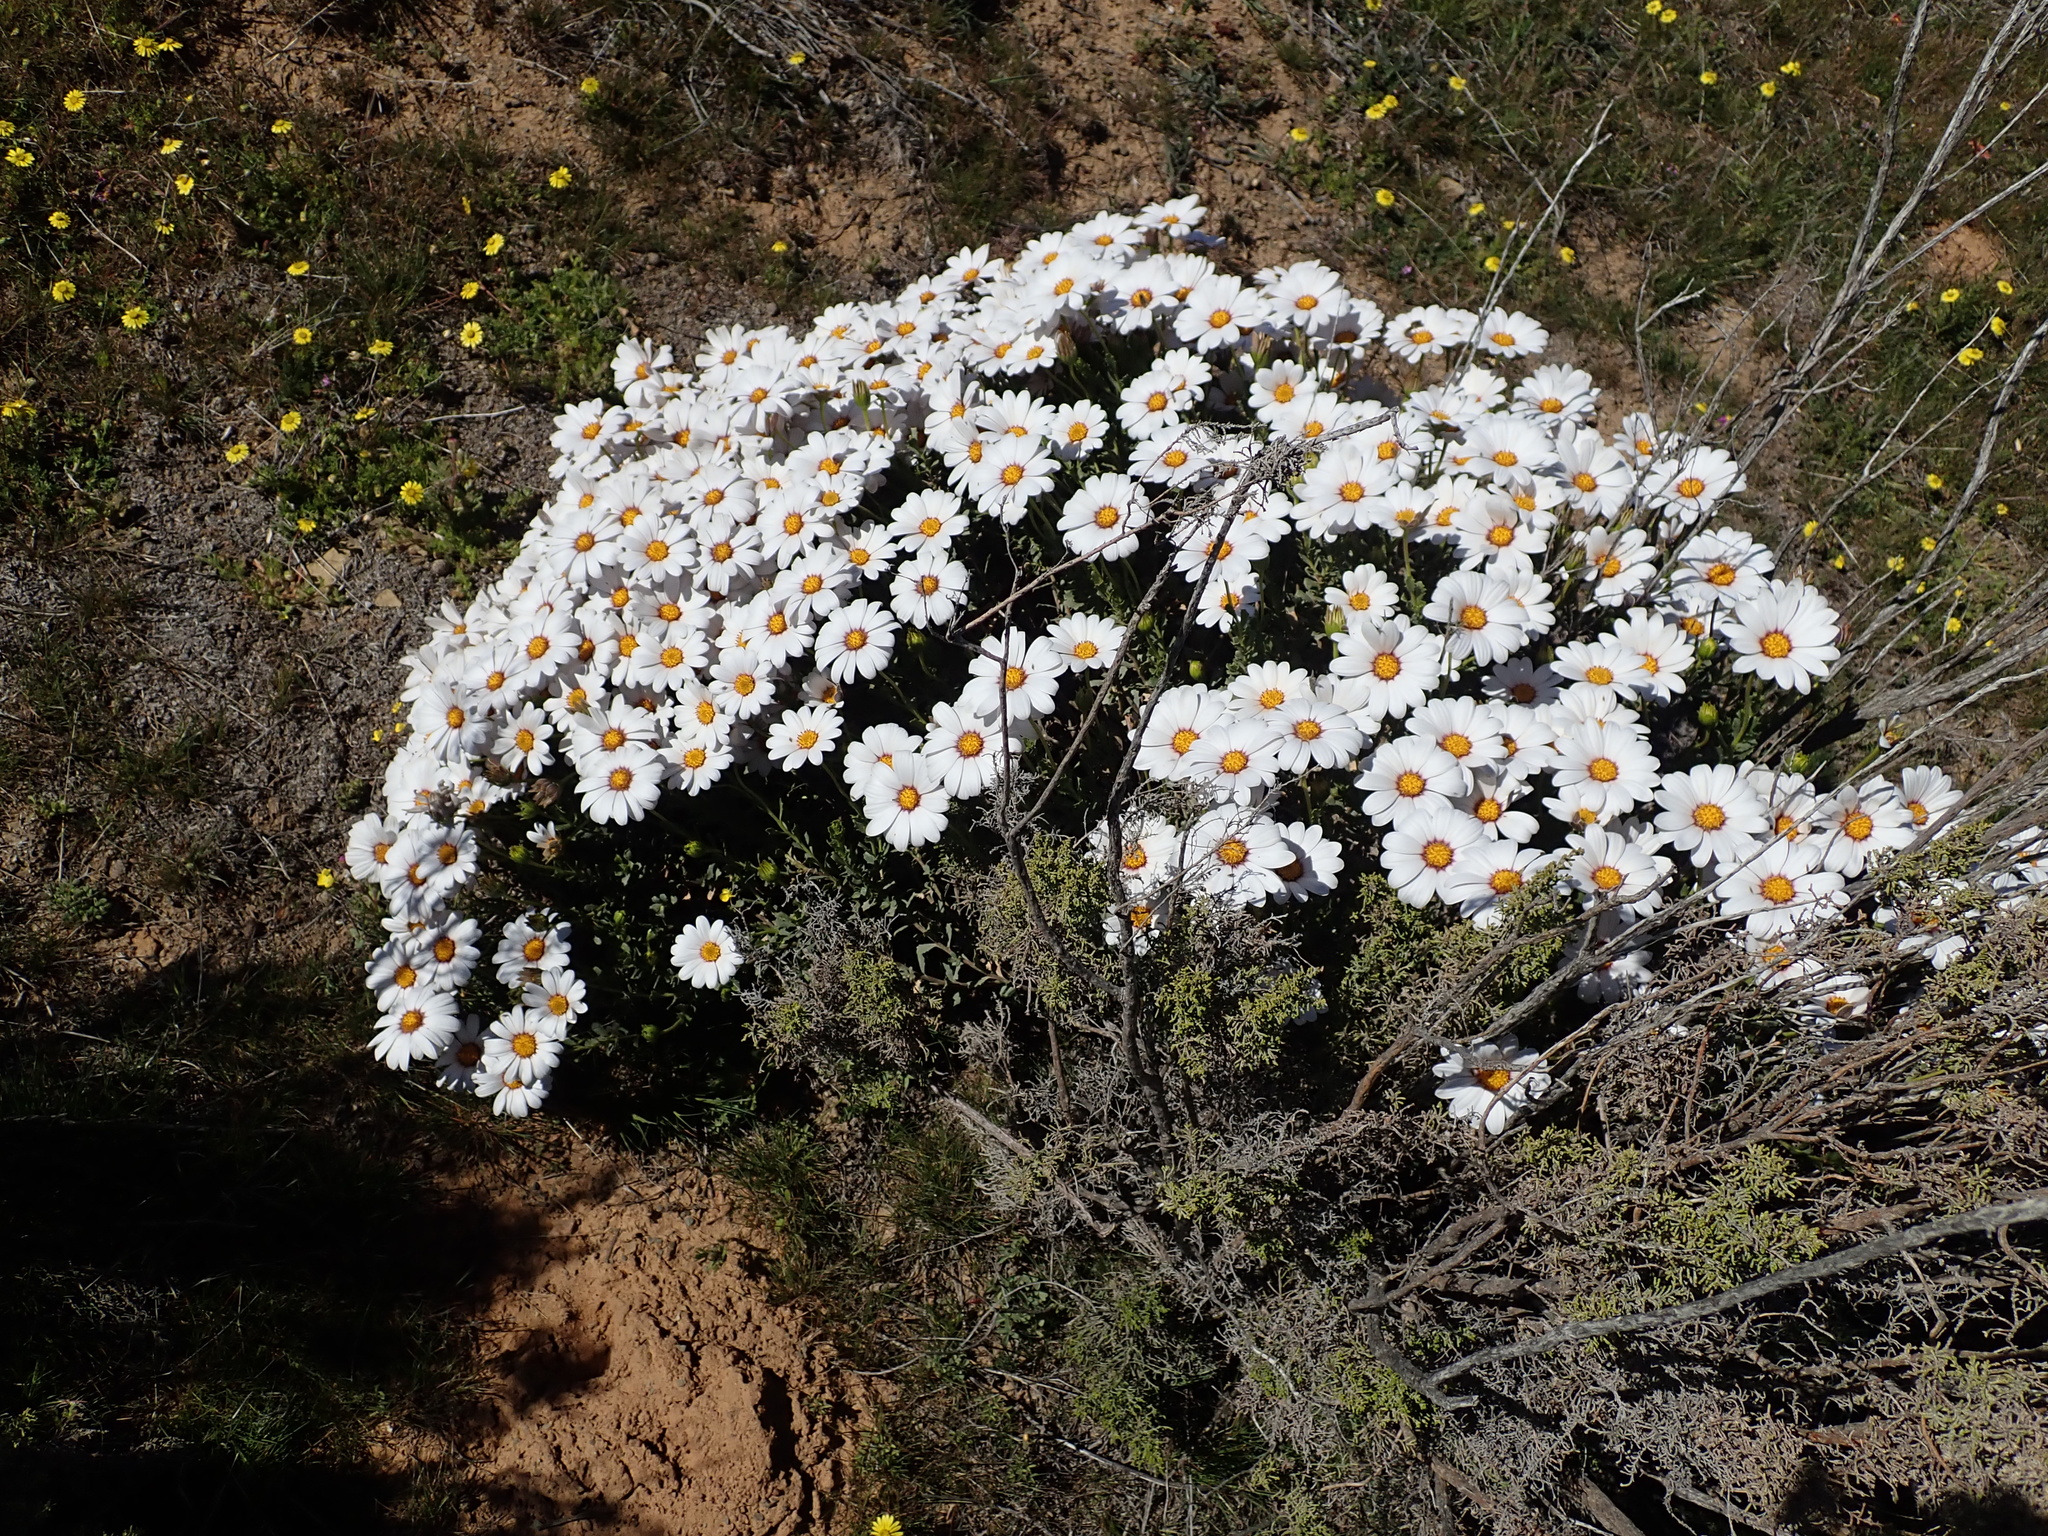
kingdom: Plantae
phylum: Tracheophyta
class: Magnoliopsida
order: Asterales
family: Asteraceae
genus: Dimorphotheca
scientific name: Dimorphotheca cuneata
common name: Daisy
